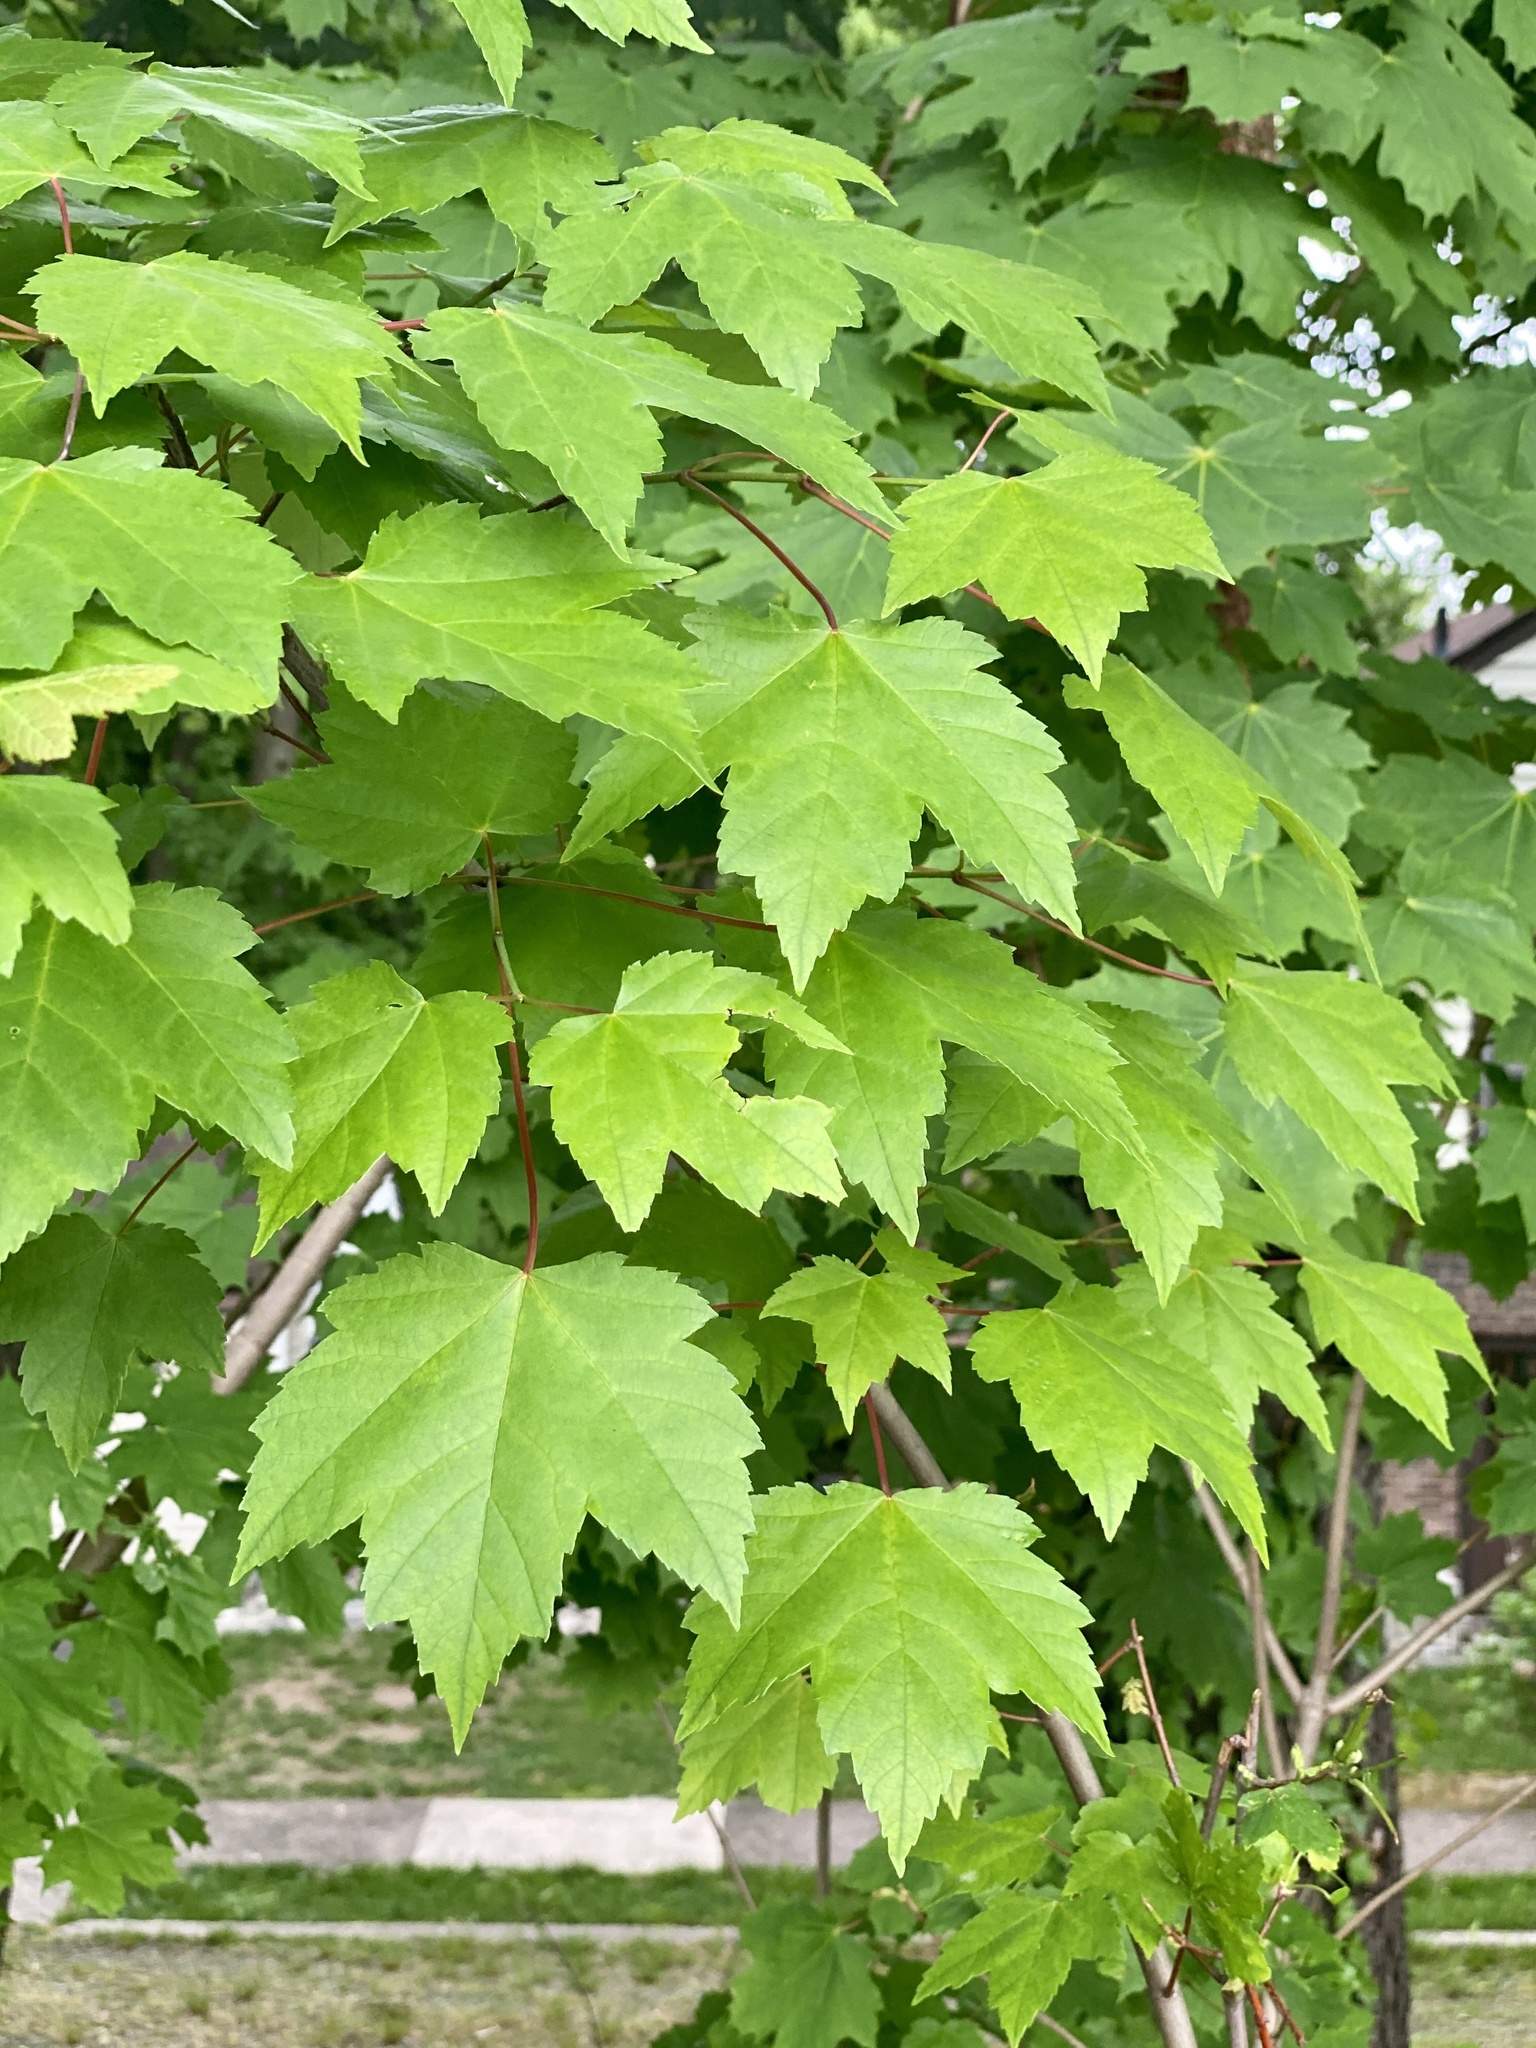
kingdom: Plantae
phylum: Tracheophyta
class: Magnoliopsida
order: Sapindales
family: Sapindaceae
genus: Acer
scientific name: Acer rubrum
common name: Red maple
